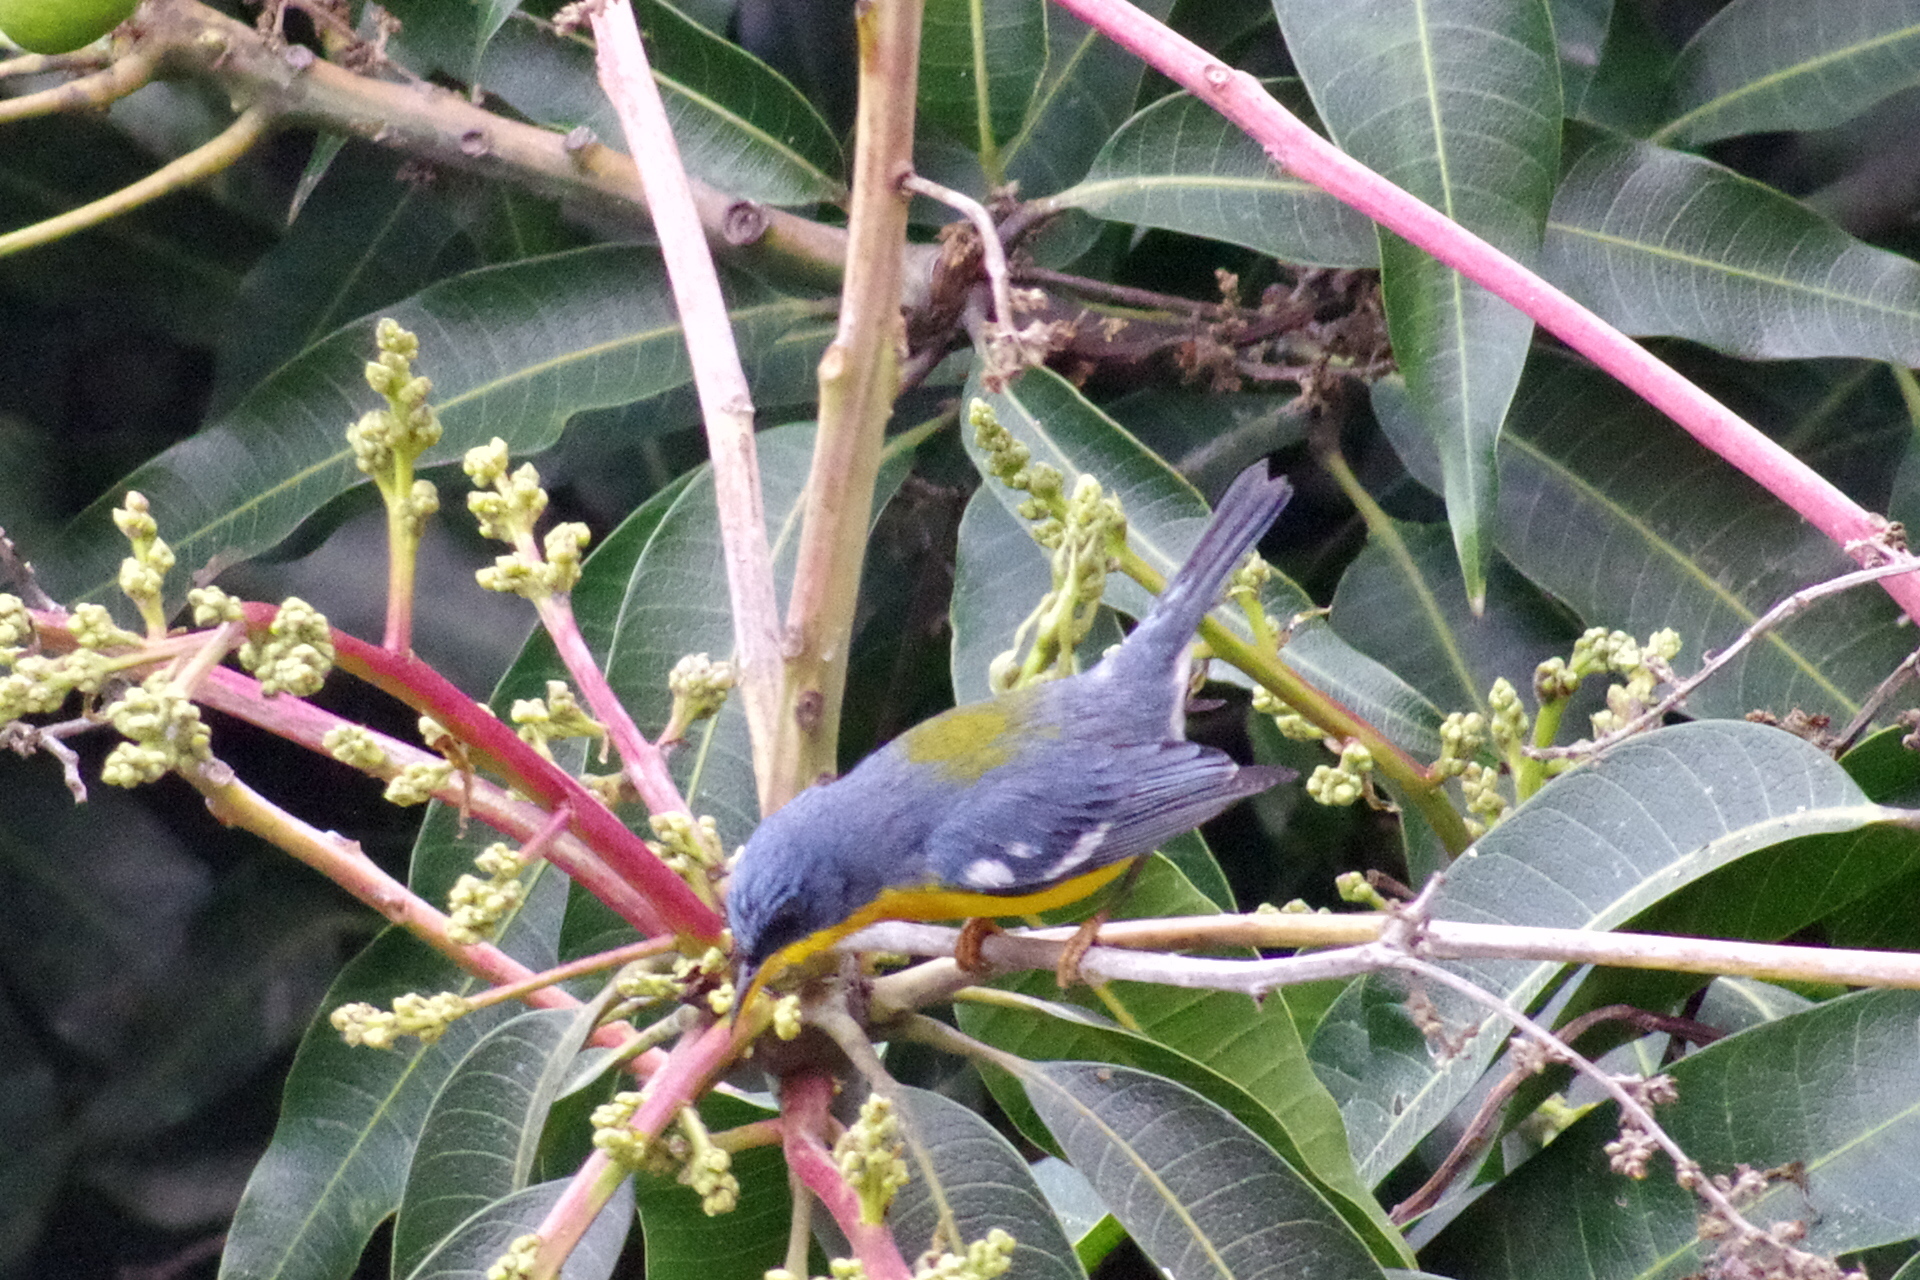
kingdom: Animalia
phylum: Chordata
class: Aves
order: Passeriformes
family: Parulidae
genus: Setophaga
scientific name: Setophaga pitiayumi
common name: Tropical parula
